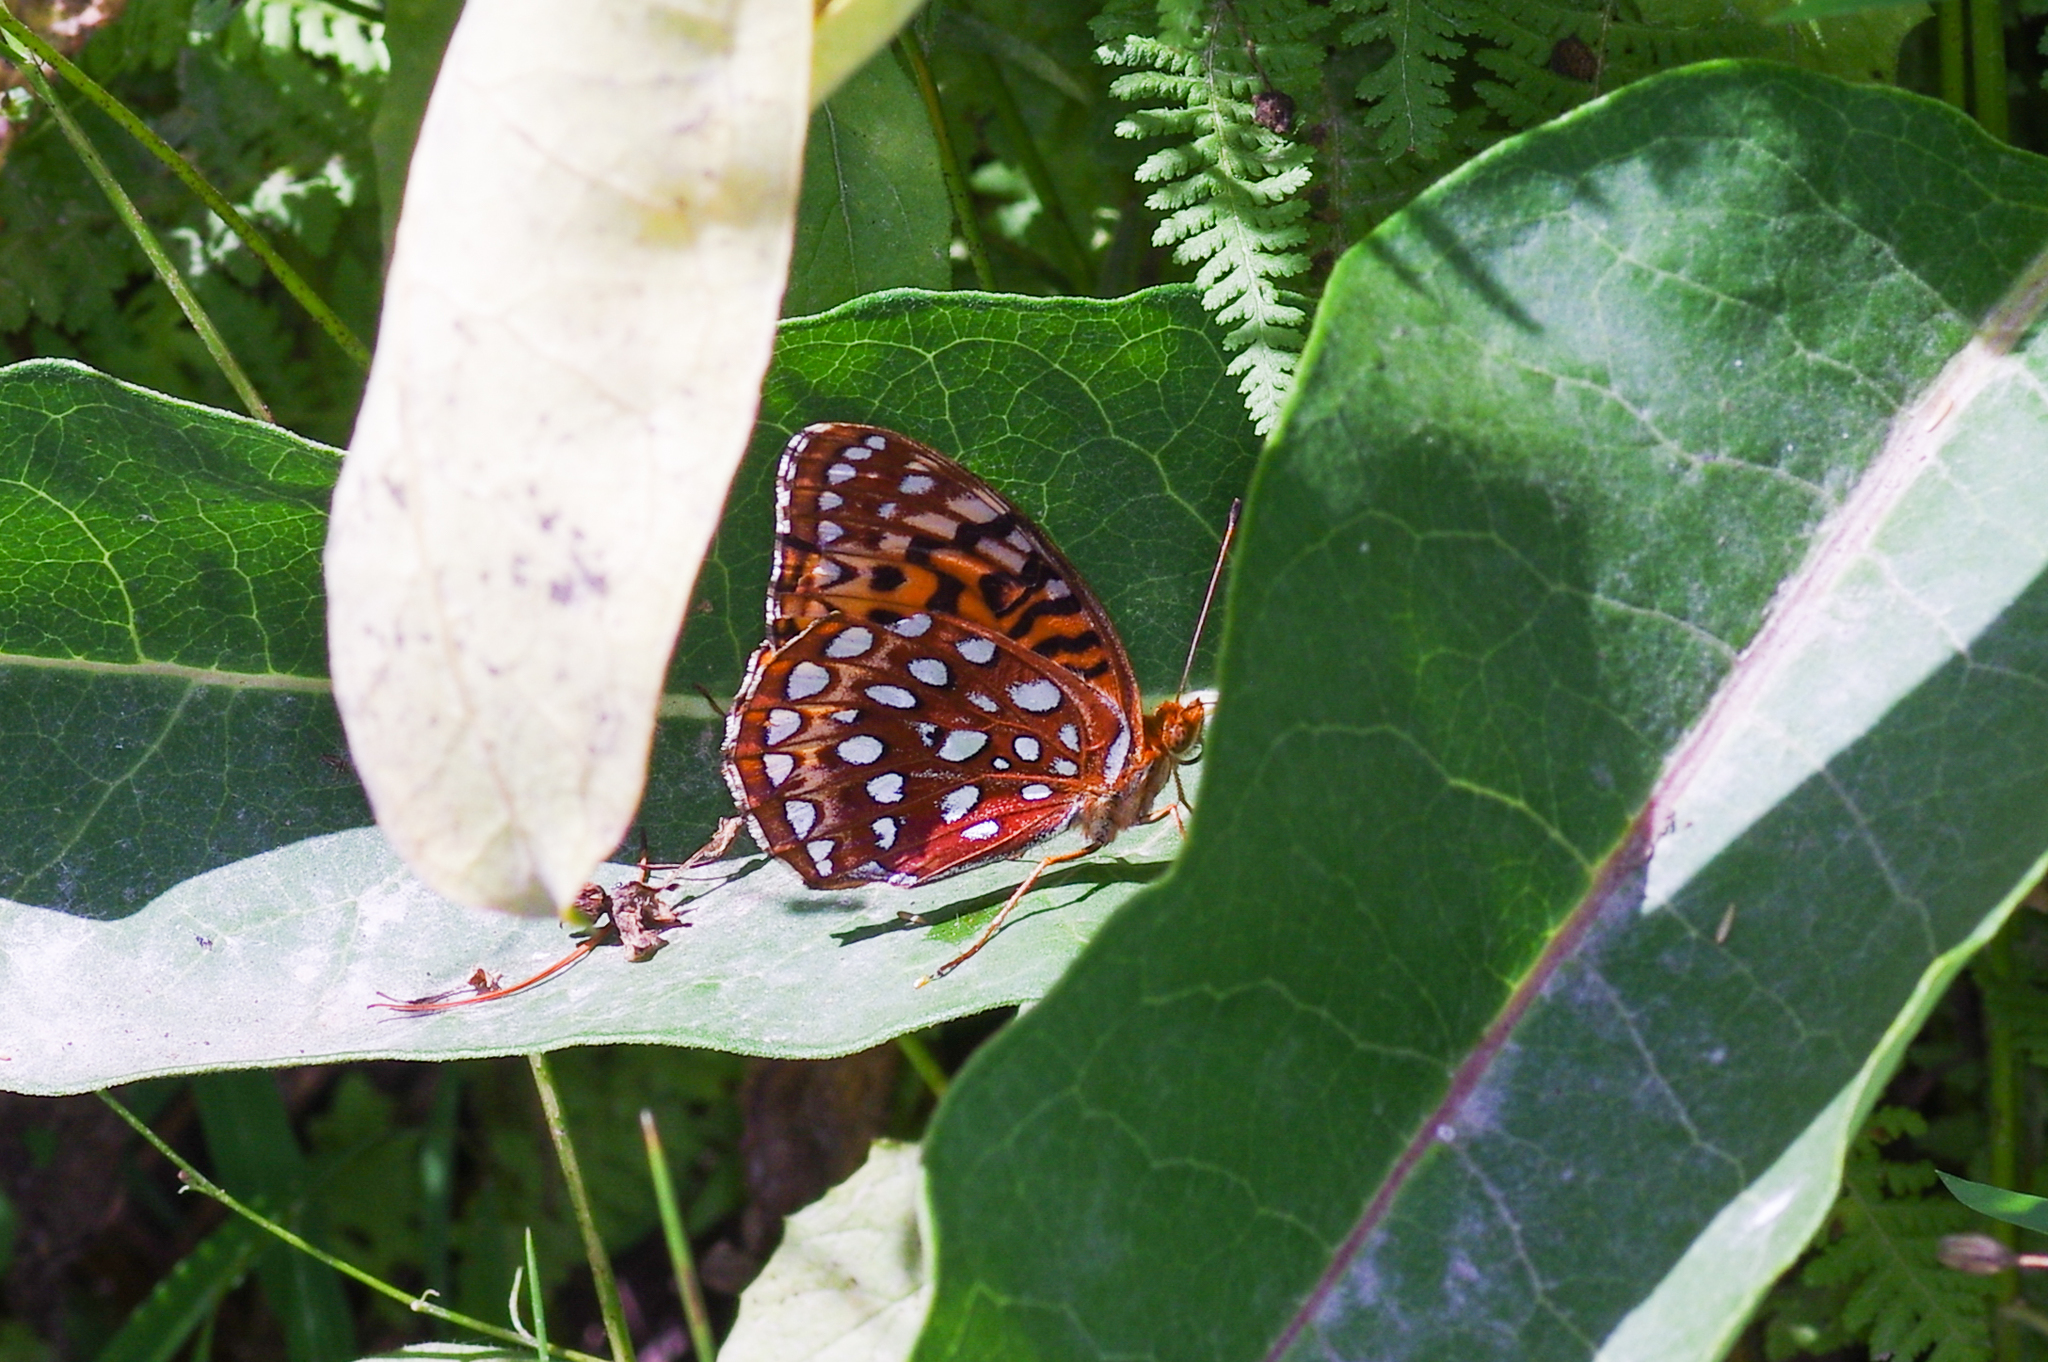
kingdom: Animalia
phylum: Arthropoda
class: Insecta
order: Lepidoptera
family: Nymphalidae
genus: Speyeria
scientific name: Speyeria aphrodite
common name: Aphrodite friitllary
